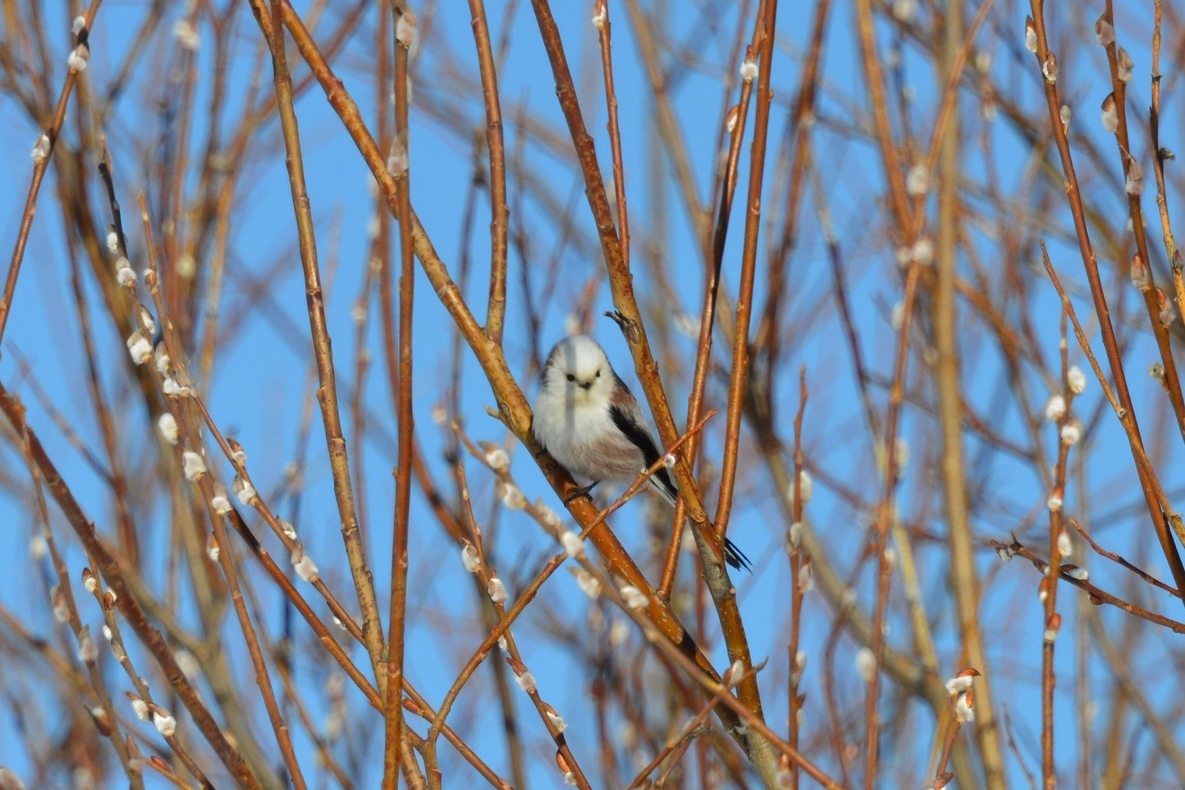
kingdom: Animalia
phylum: Chordata
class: Aves
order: Passeriformes
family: Aegithalidae
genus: Aegithalos
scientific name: Aegithalos caudatus
